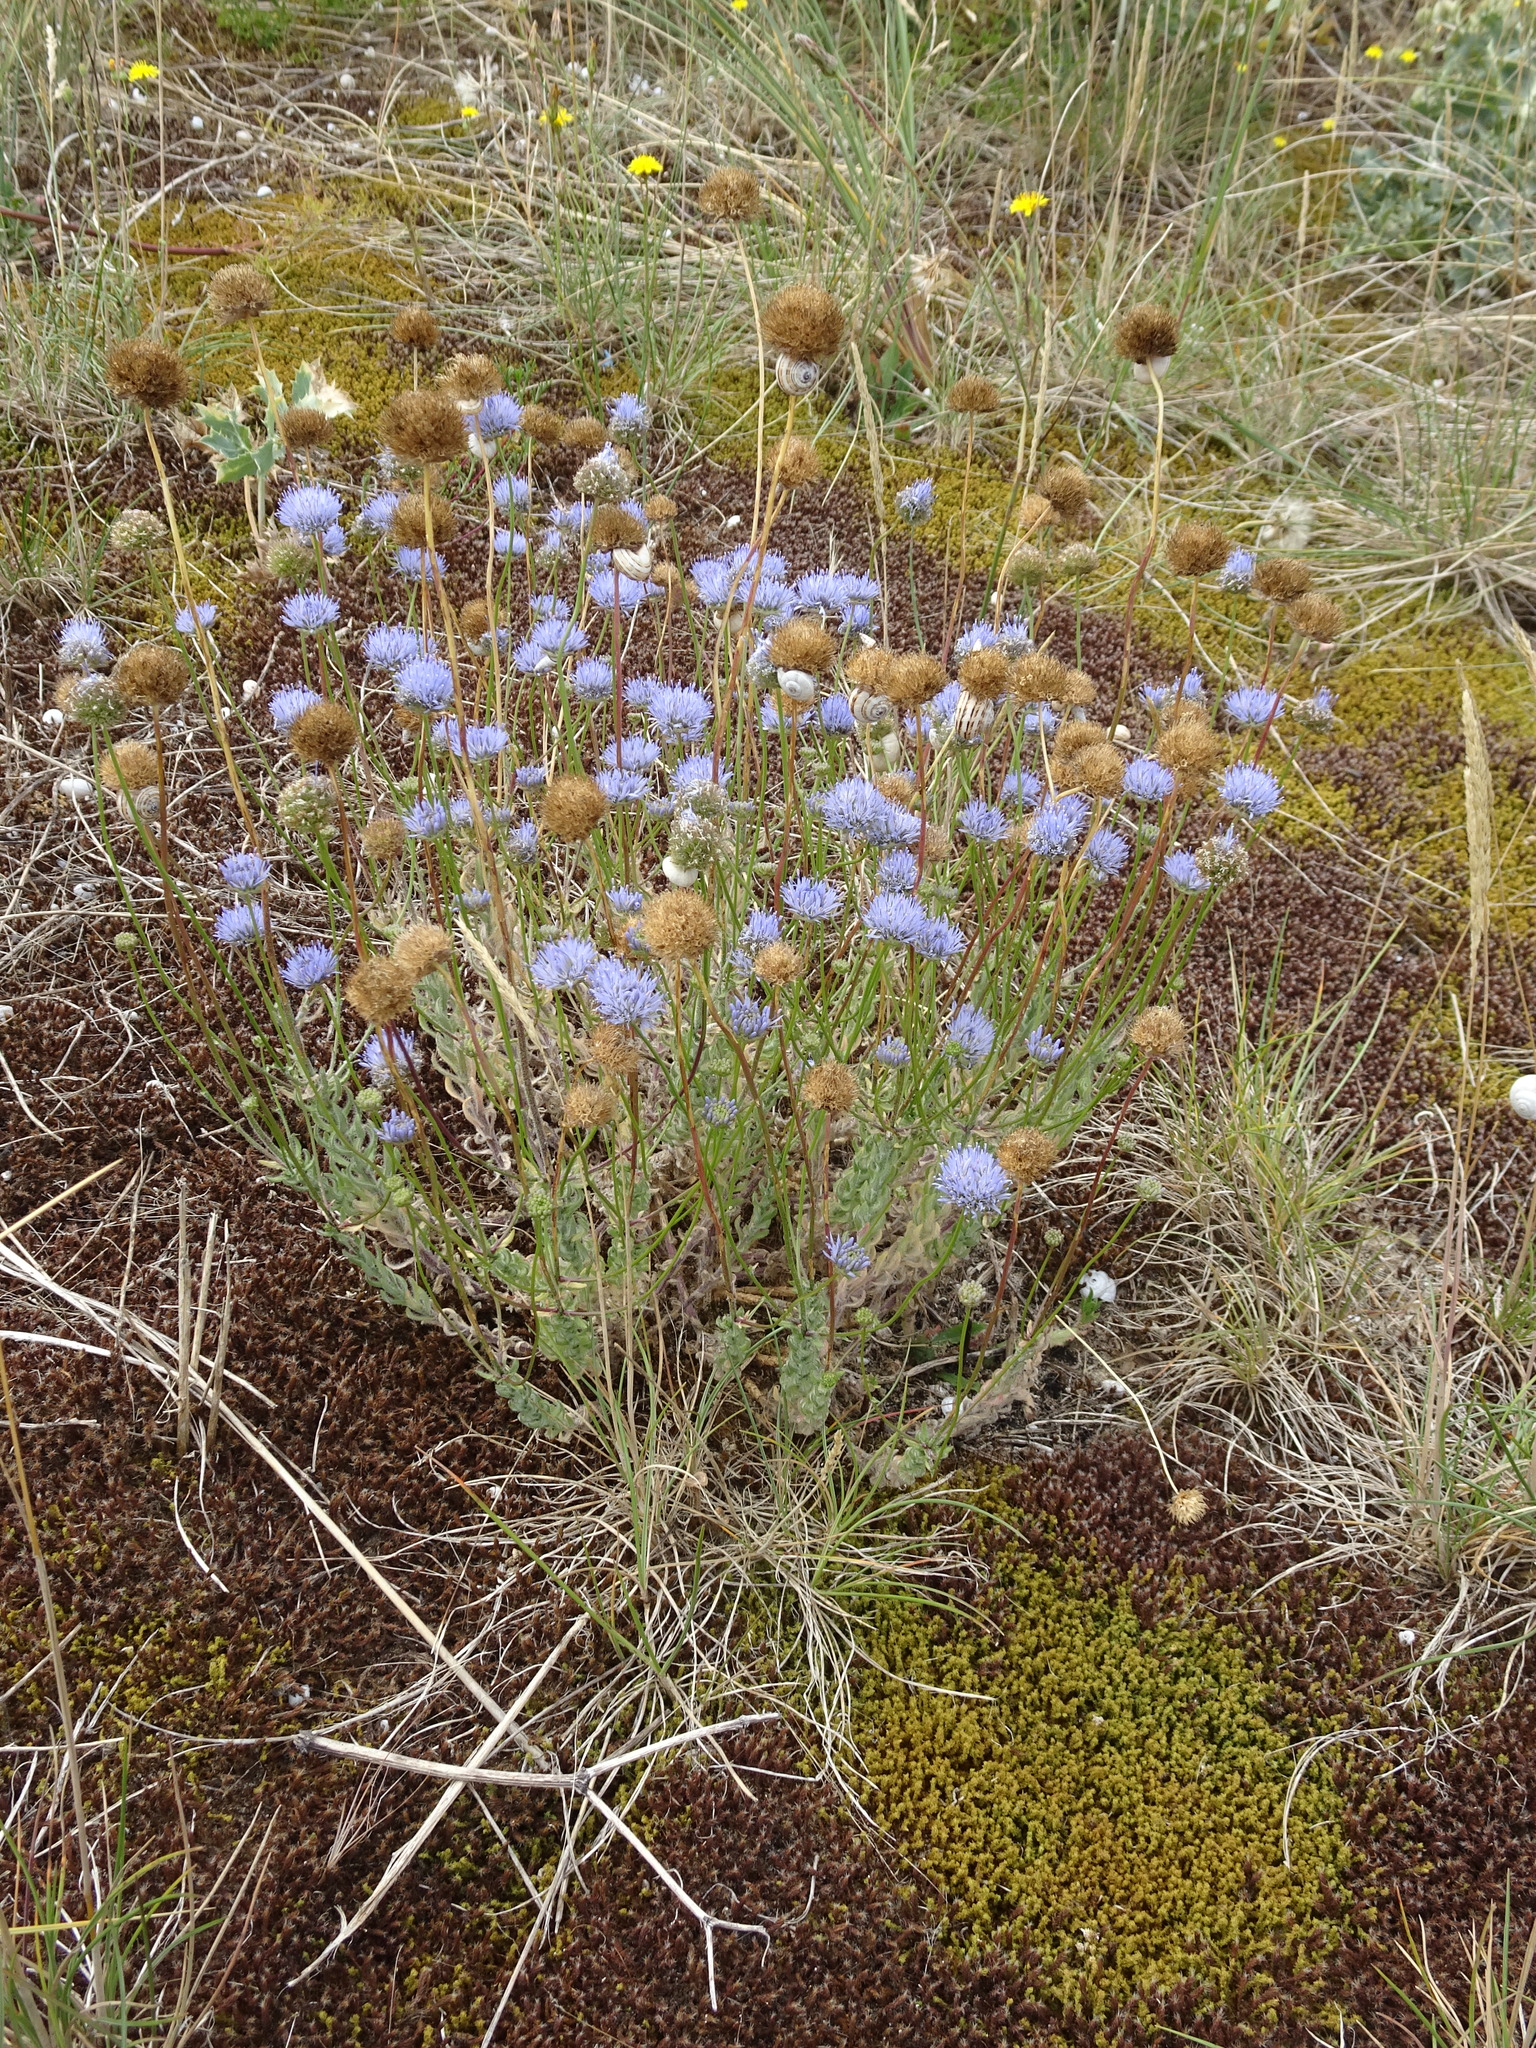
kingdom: Plantae
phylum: Tracheophyta
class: Magnoliopsida
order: Asterales
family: Campanulaceae
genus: Jasione
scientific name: Jasione montana
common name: Sheep's-bit
